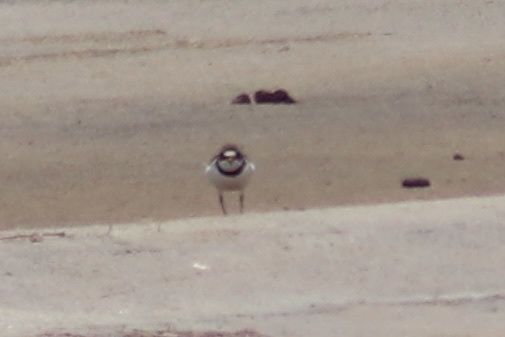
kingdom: Animalia
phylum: Chordata
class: Aves
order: Charadriiformes
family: Charadriidae
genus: Charadrius
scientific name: Charadrius semipalmatus
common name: Semipalmated plover
